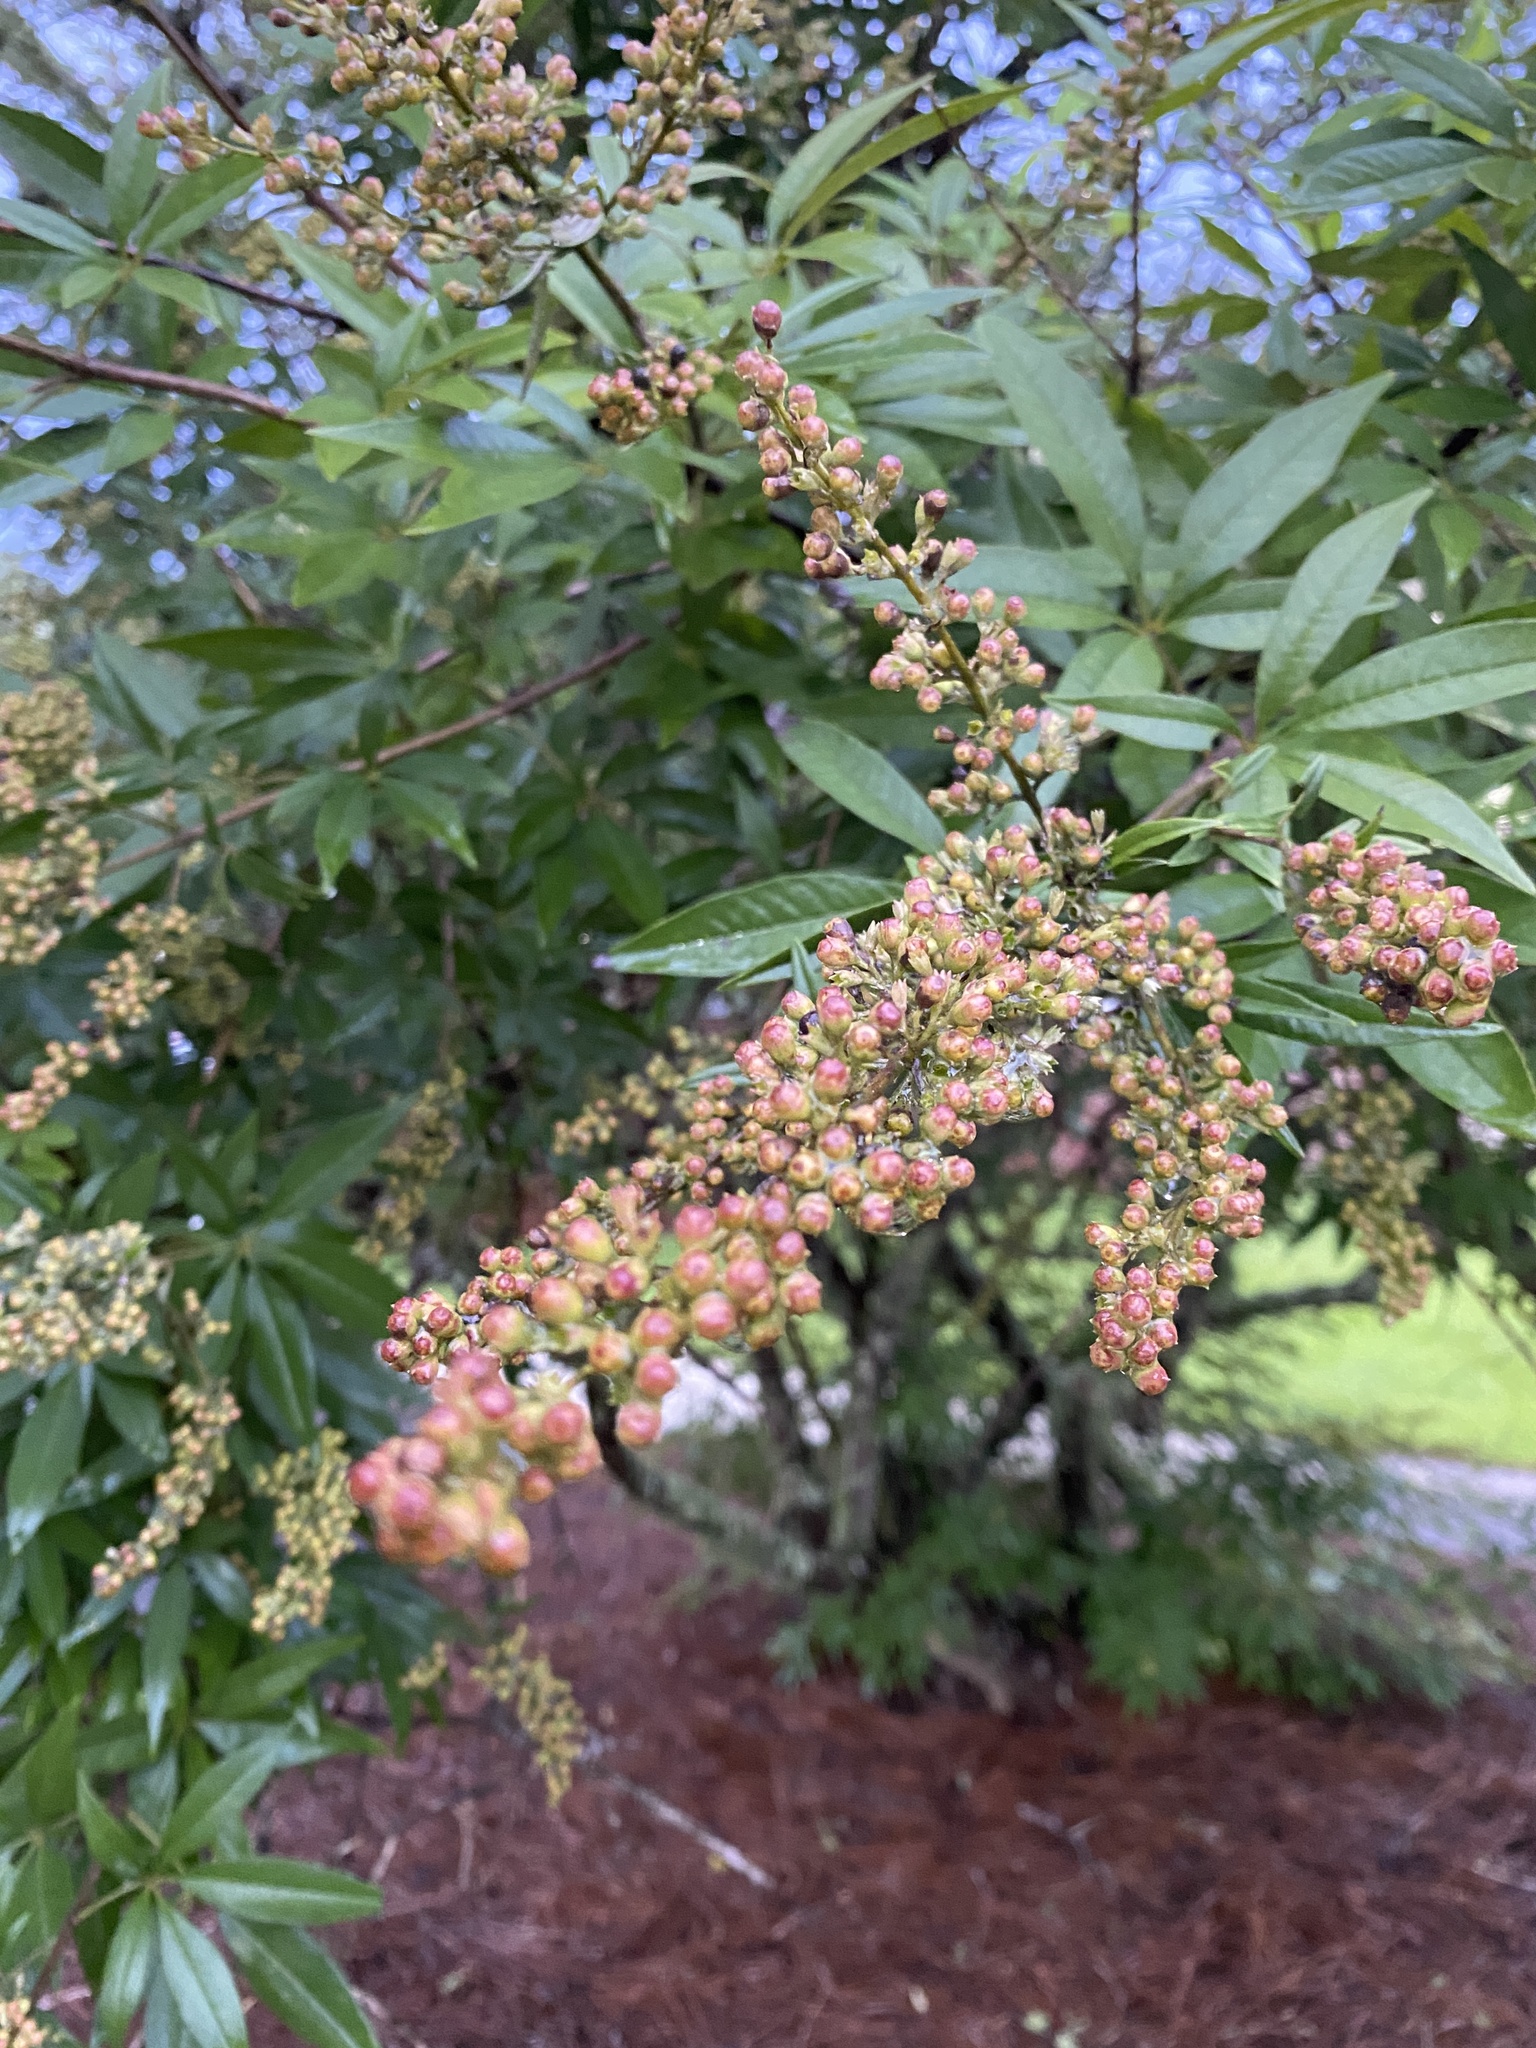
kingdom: Plantae
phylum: Tracheophyta
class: Magnoliopsida
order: Lamiales
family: Lamiaceae
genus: Vitex
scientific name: Vitex agnus-castus
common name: Chasteberry
